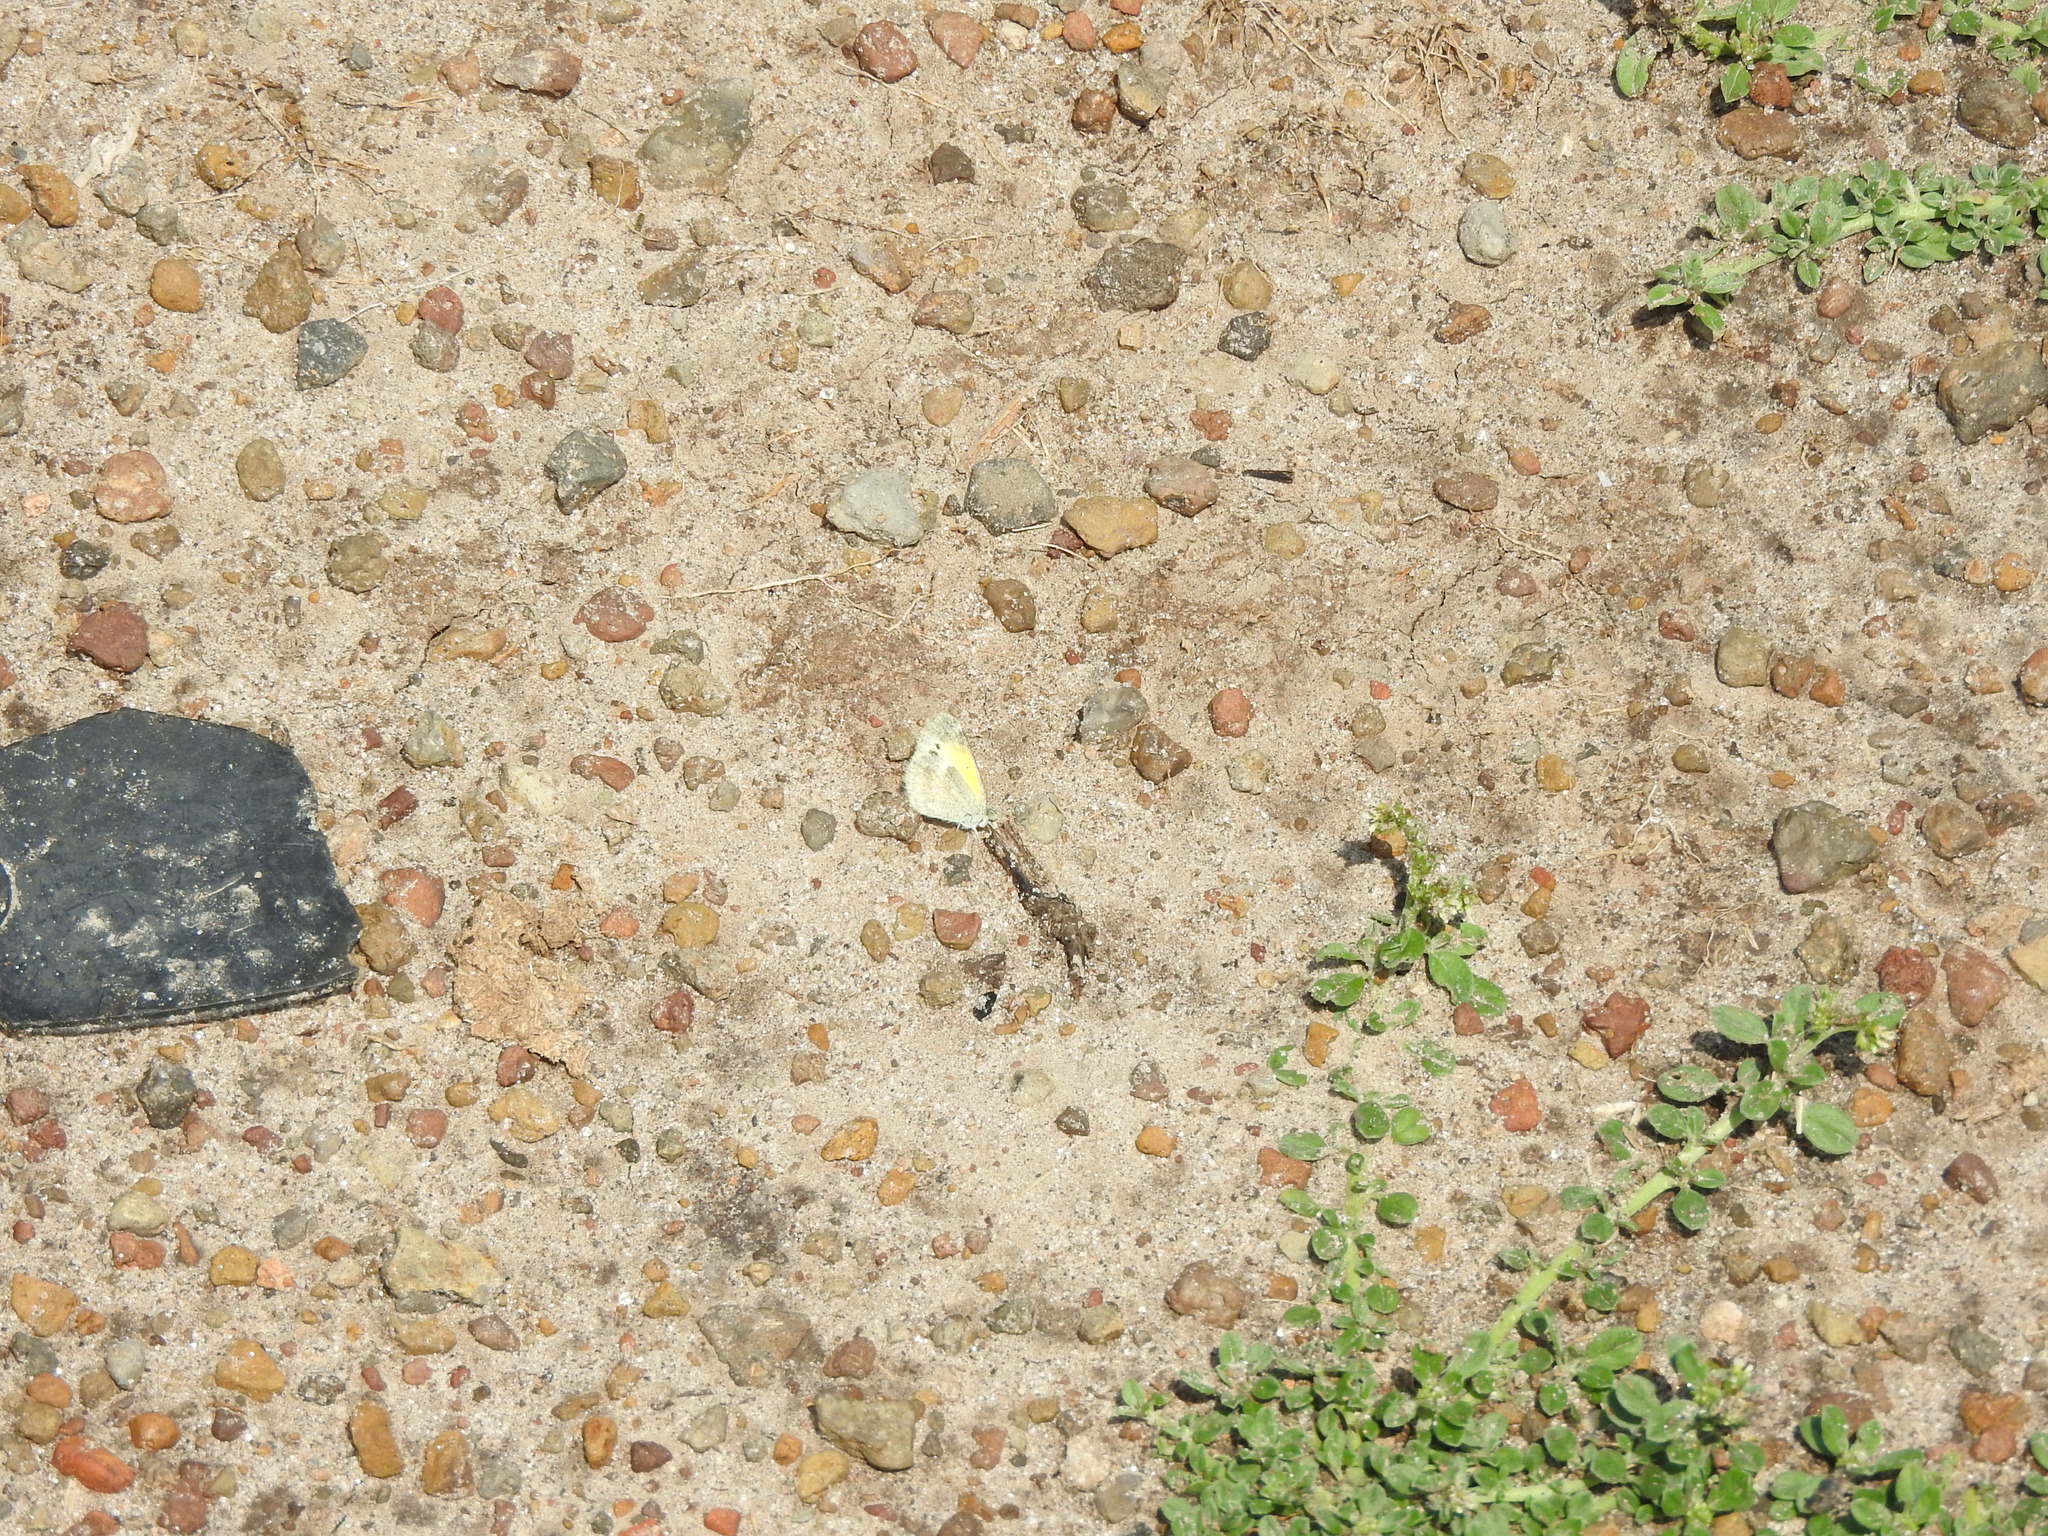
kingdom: Animalia
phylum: Arthropoda
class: Insecta
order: Lepidoptera
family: Pieridae
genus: Nathalis
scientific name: Nathalis iole
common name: Dainty sulphur
